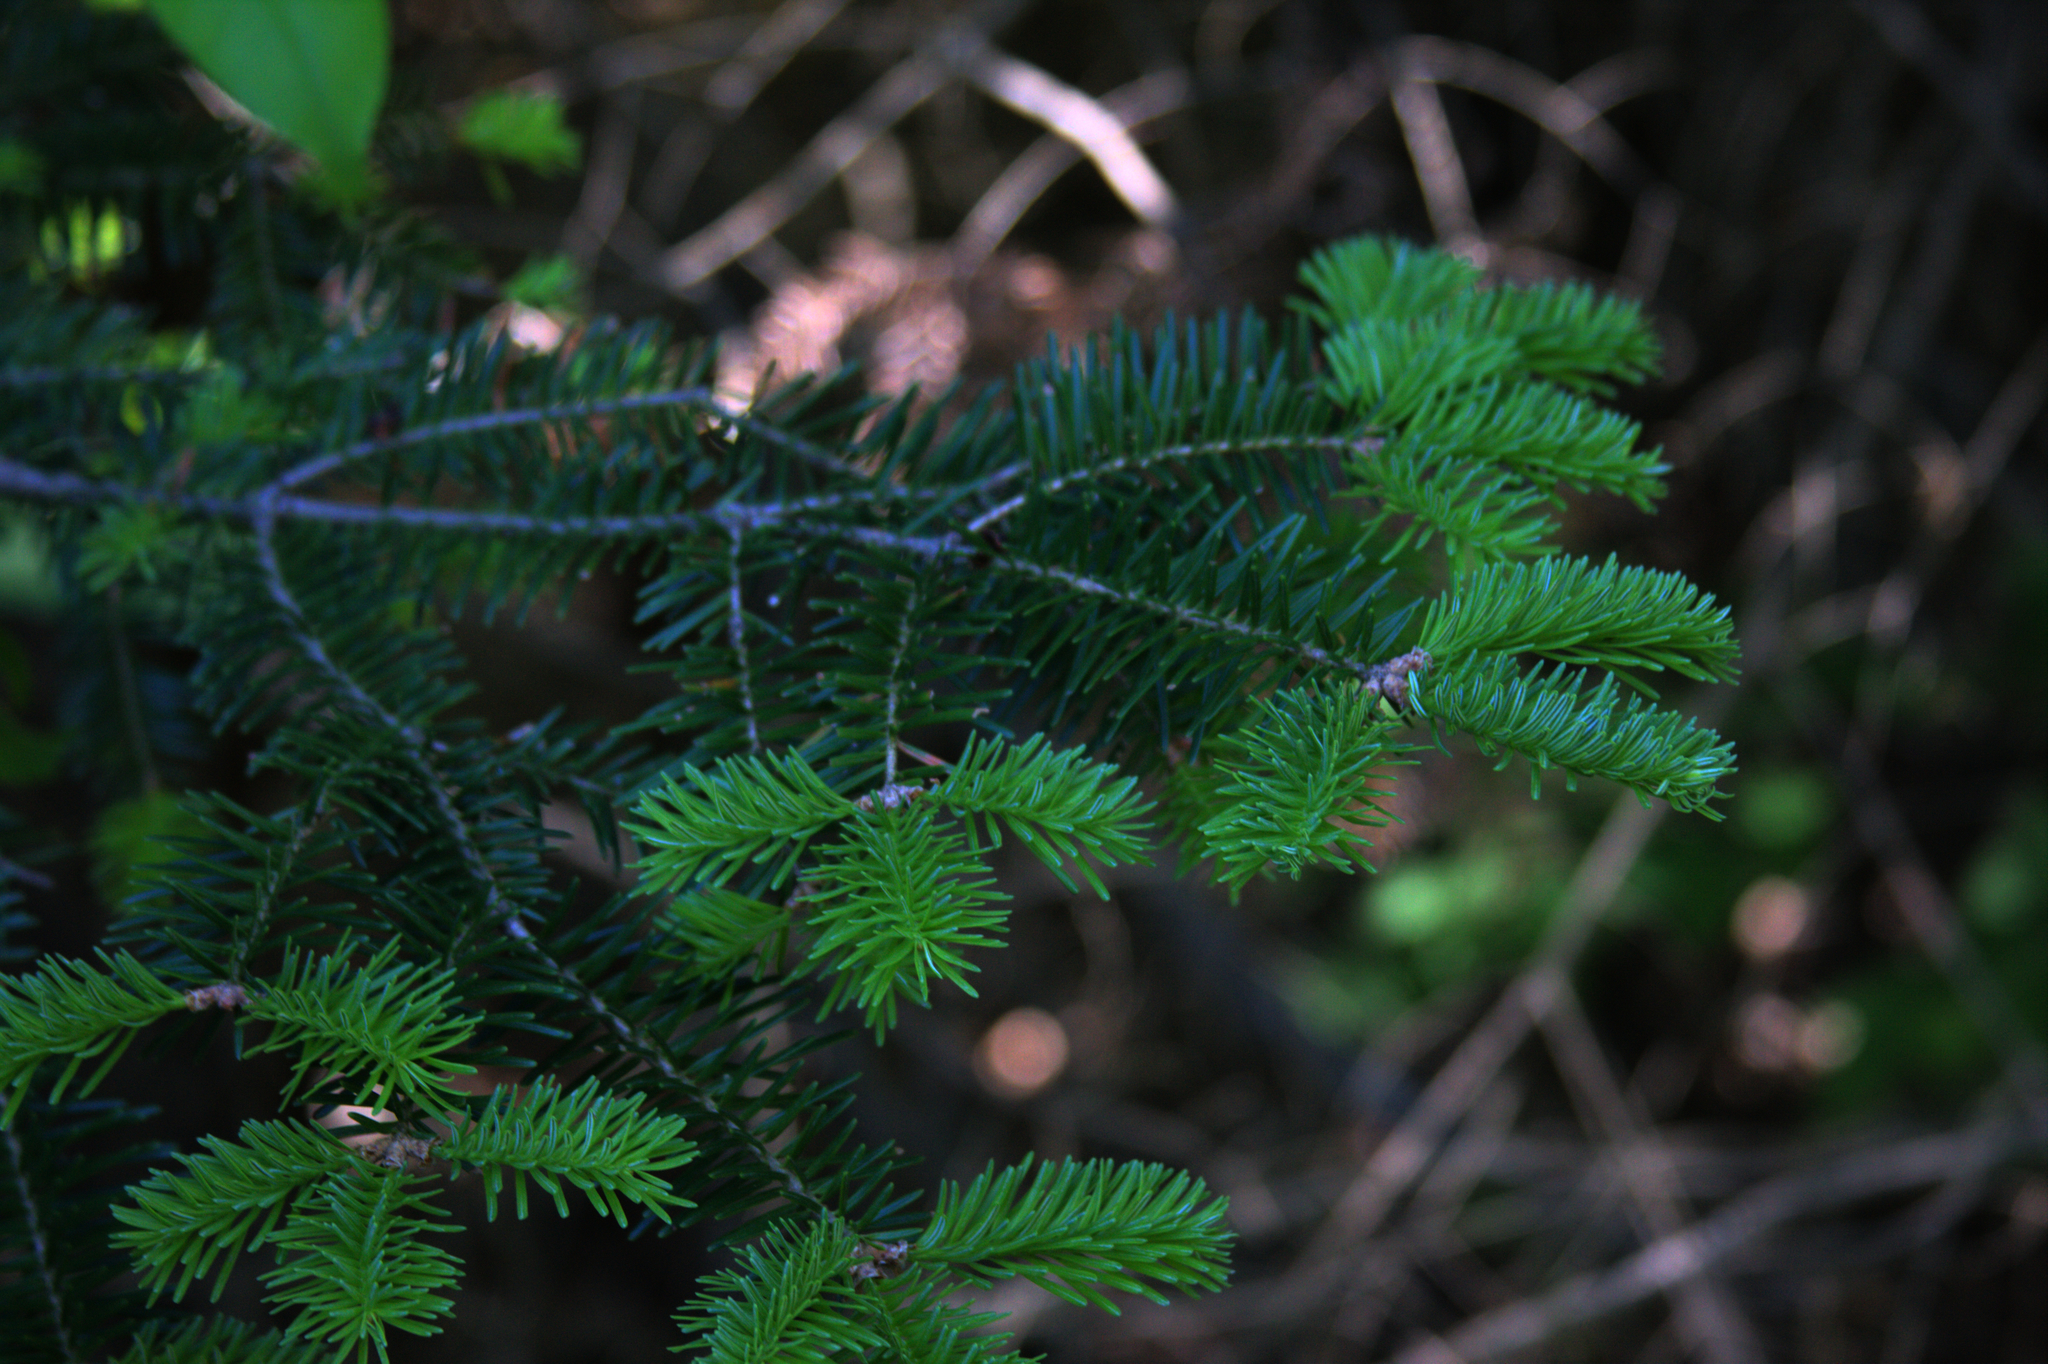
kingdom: Plantae
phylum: Tracheophyta
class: Pinopsida
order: Pinales
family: Pinaceae
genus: Abies
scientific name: Abies balsamea
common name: Balsam fir
